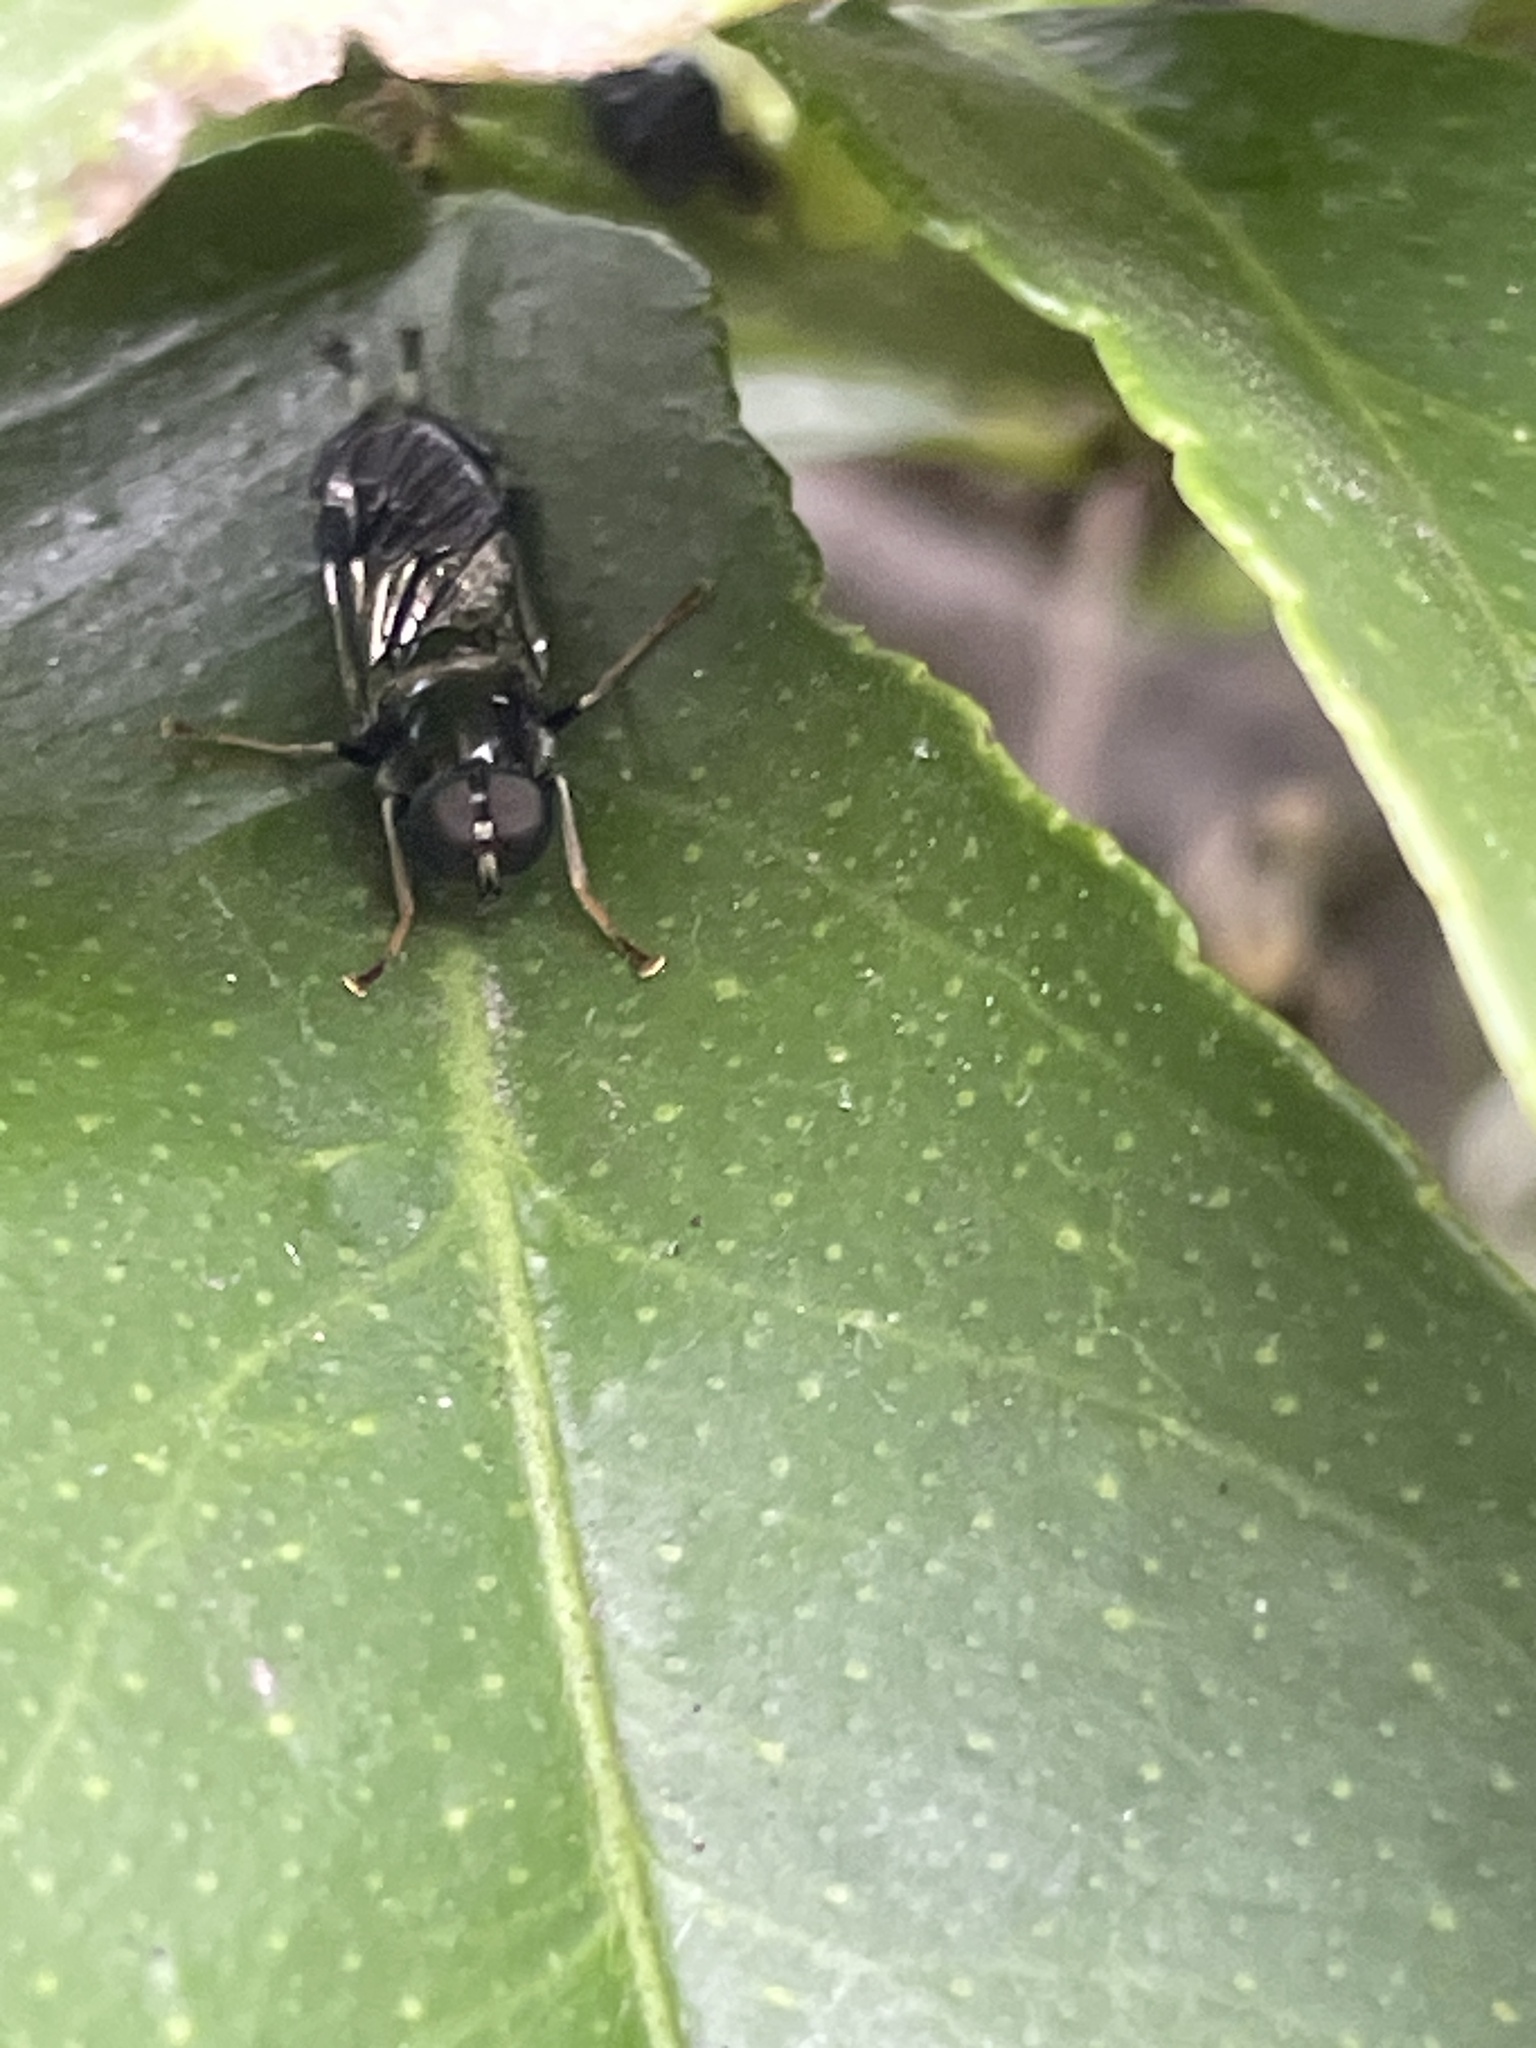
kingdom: Animalia
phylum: Arthropoda
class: Insecta
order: Diptera
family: Stratiomyidae
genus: Exaireta
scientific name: Exaireta spinigera
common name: Blue soldier fly
